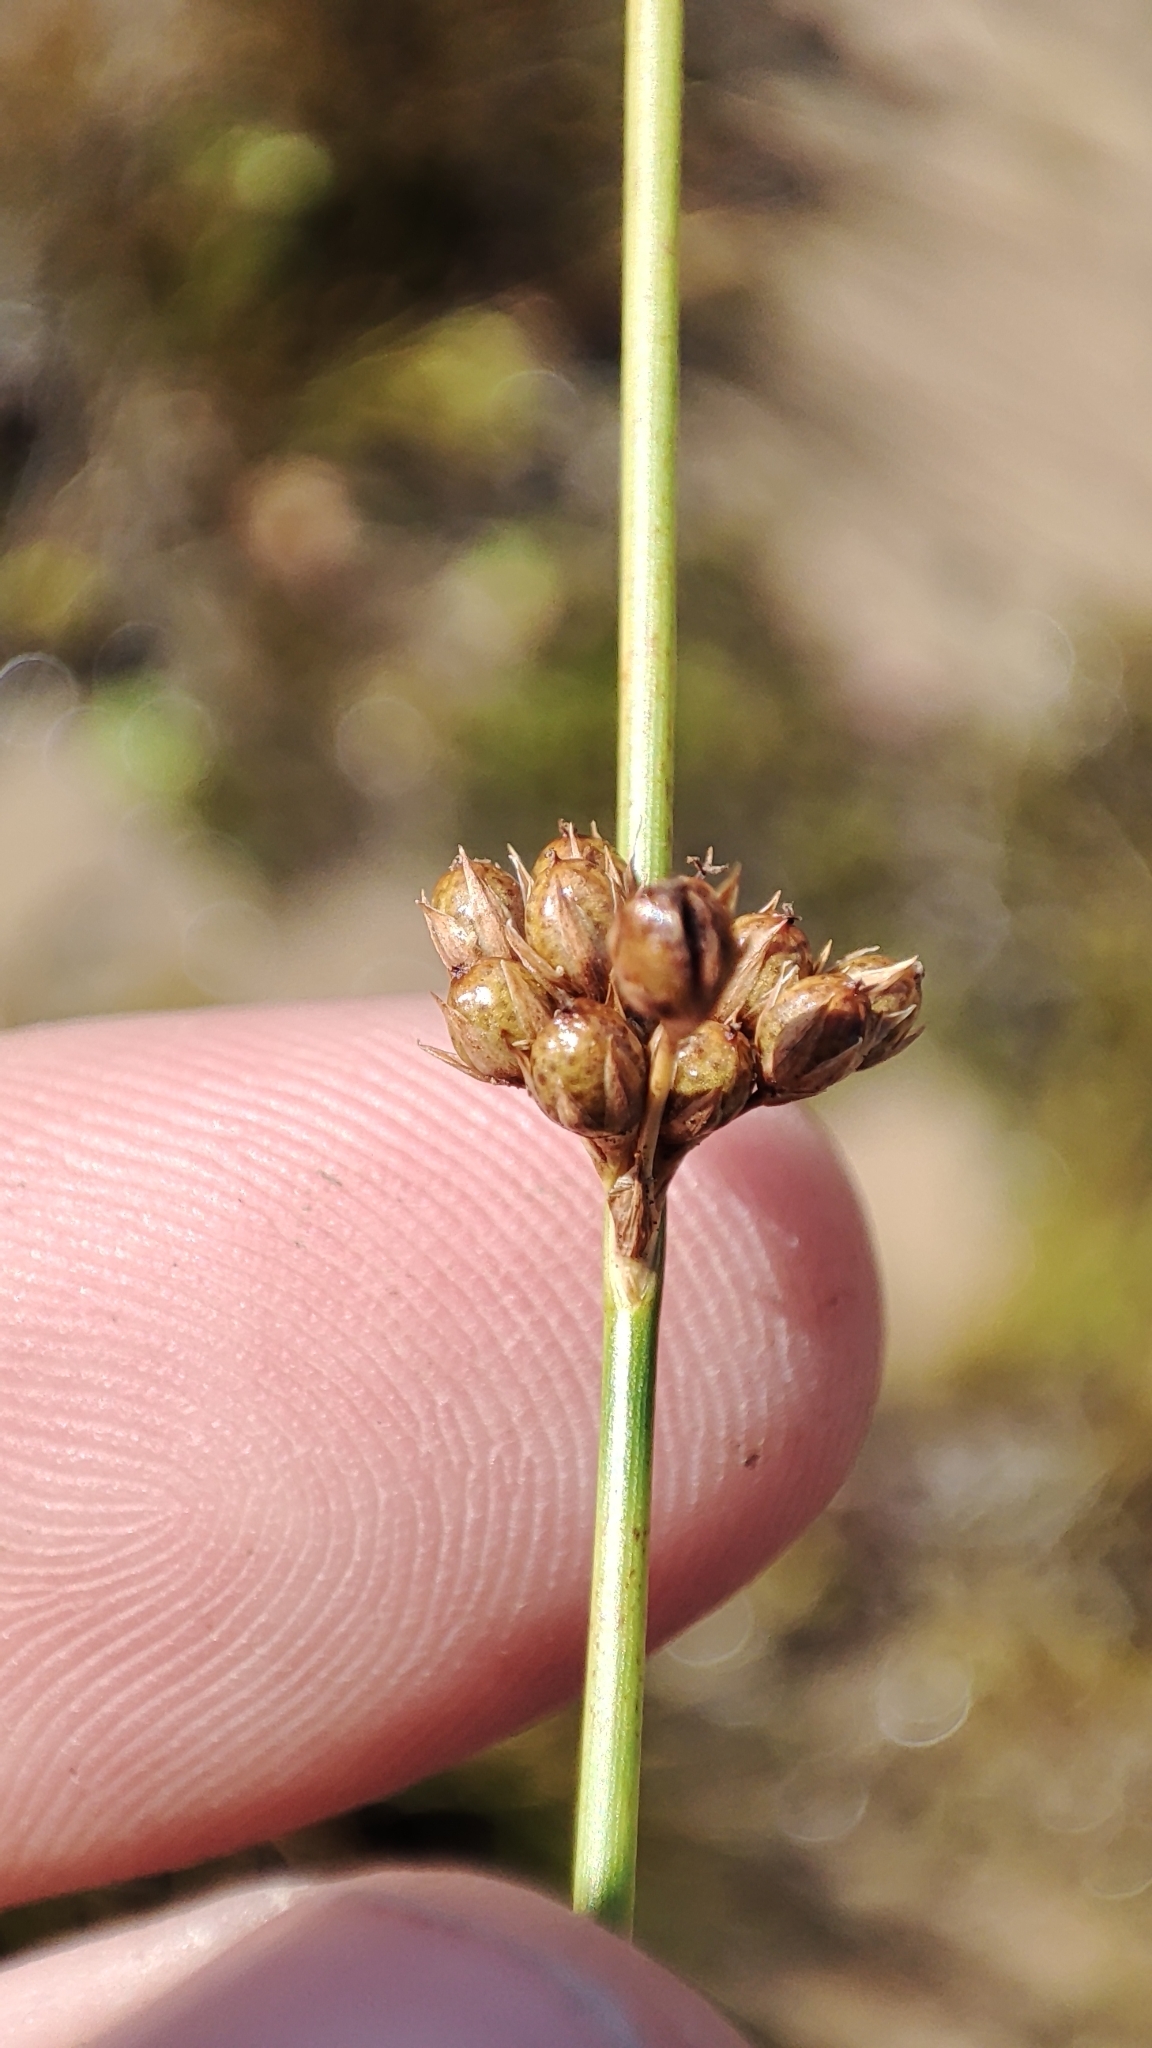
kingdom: Plantae
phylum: Tracheophyta
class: Liliopsida
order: Poales
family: Juncaceae
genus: Juncus
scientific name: Juncus filiformis
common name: Thread rush
